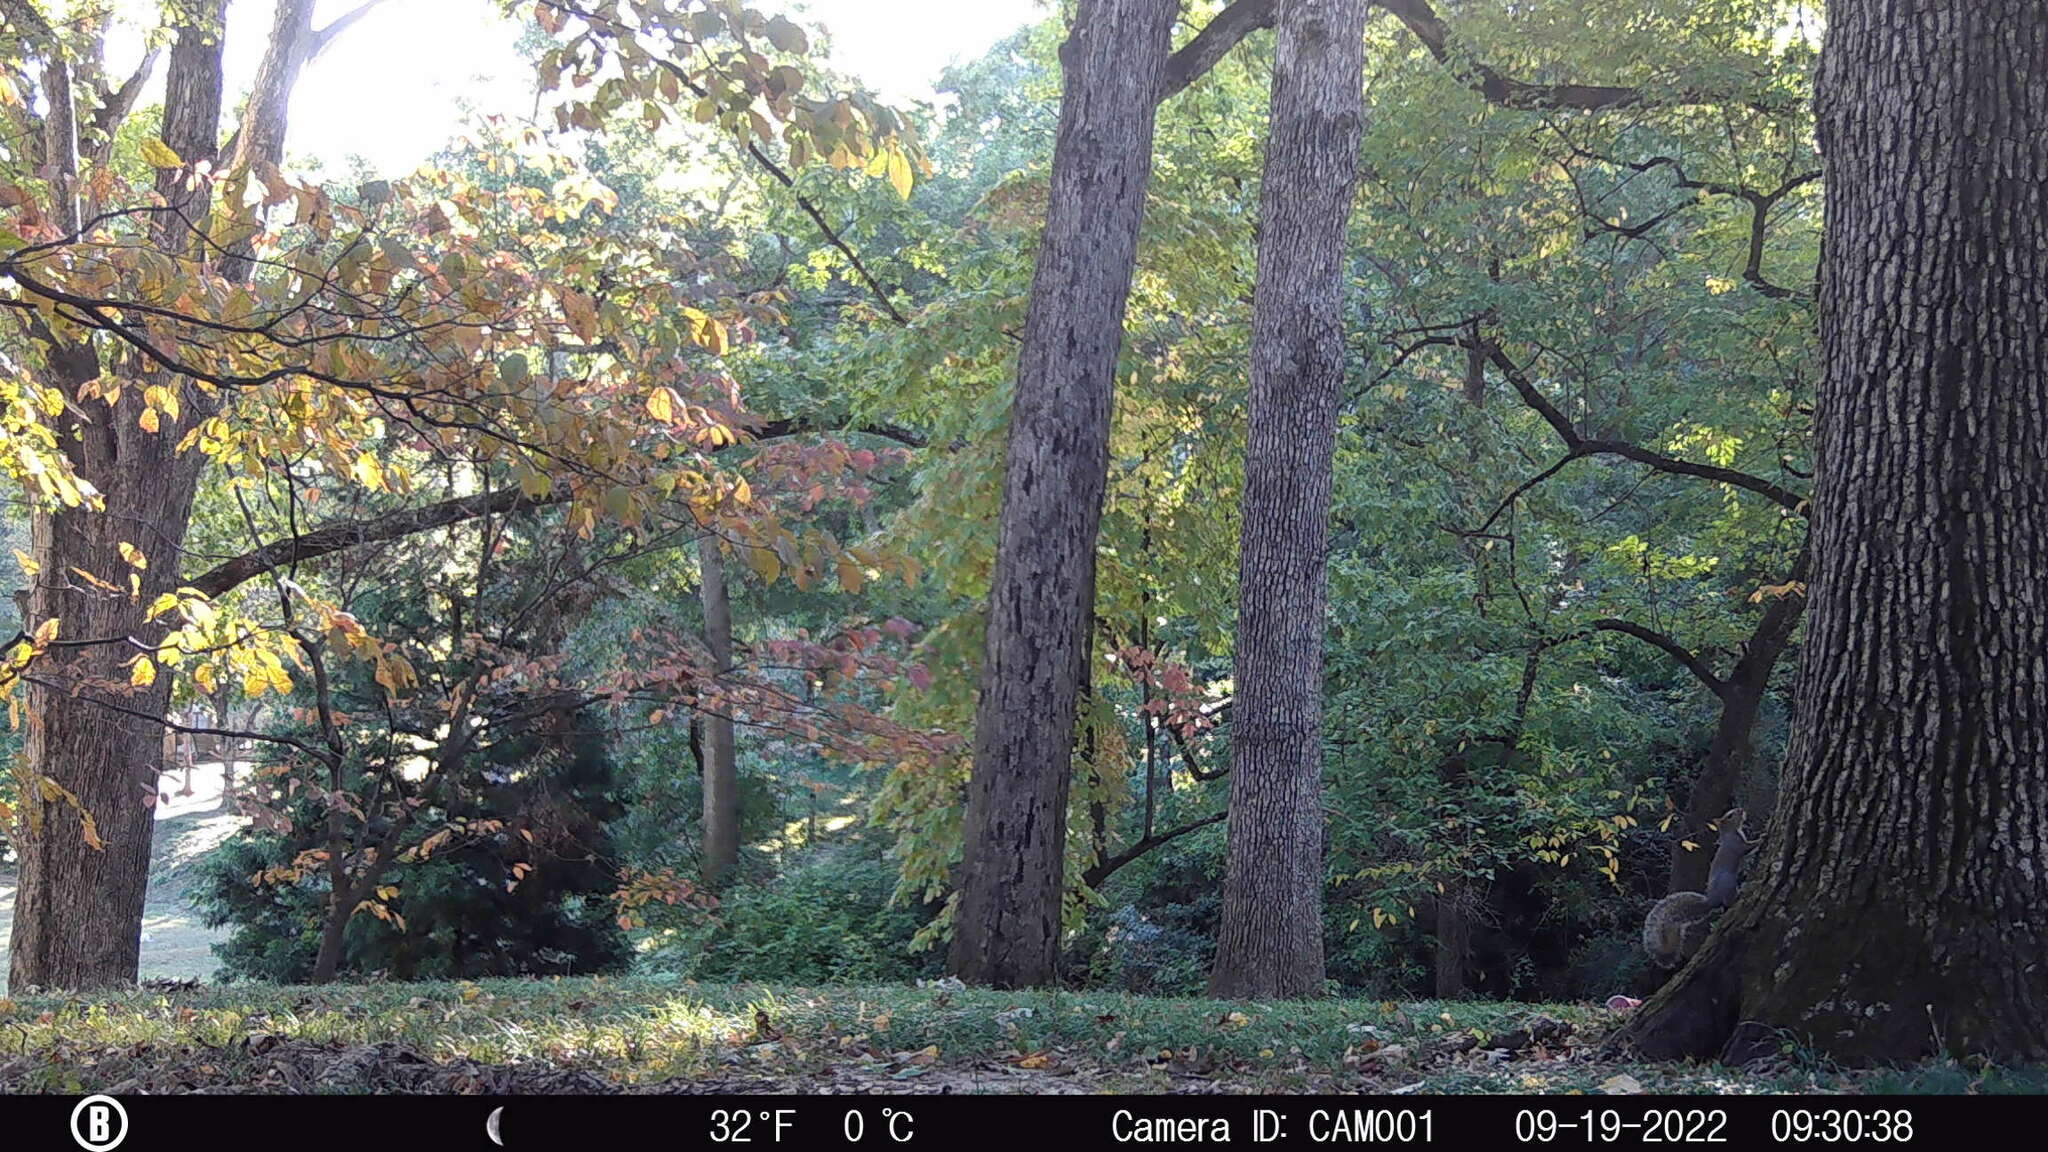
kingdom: Animalia
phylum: Chordata
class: Mammalia
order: Rodentia
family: Sciuridae
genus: Sciurus
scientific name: Sciurus carolinensis
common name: Eastern gray squirrel
